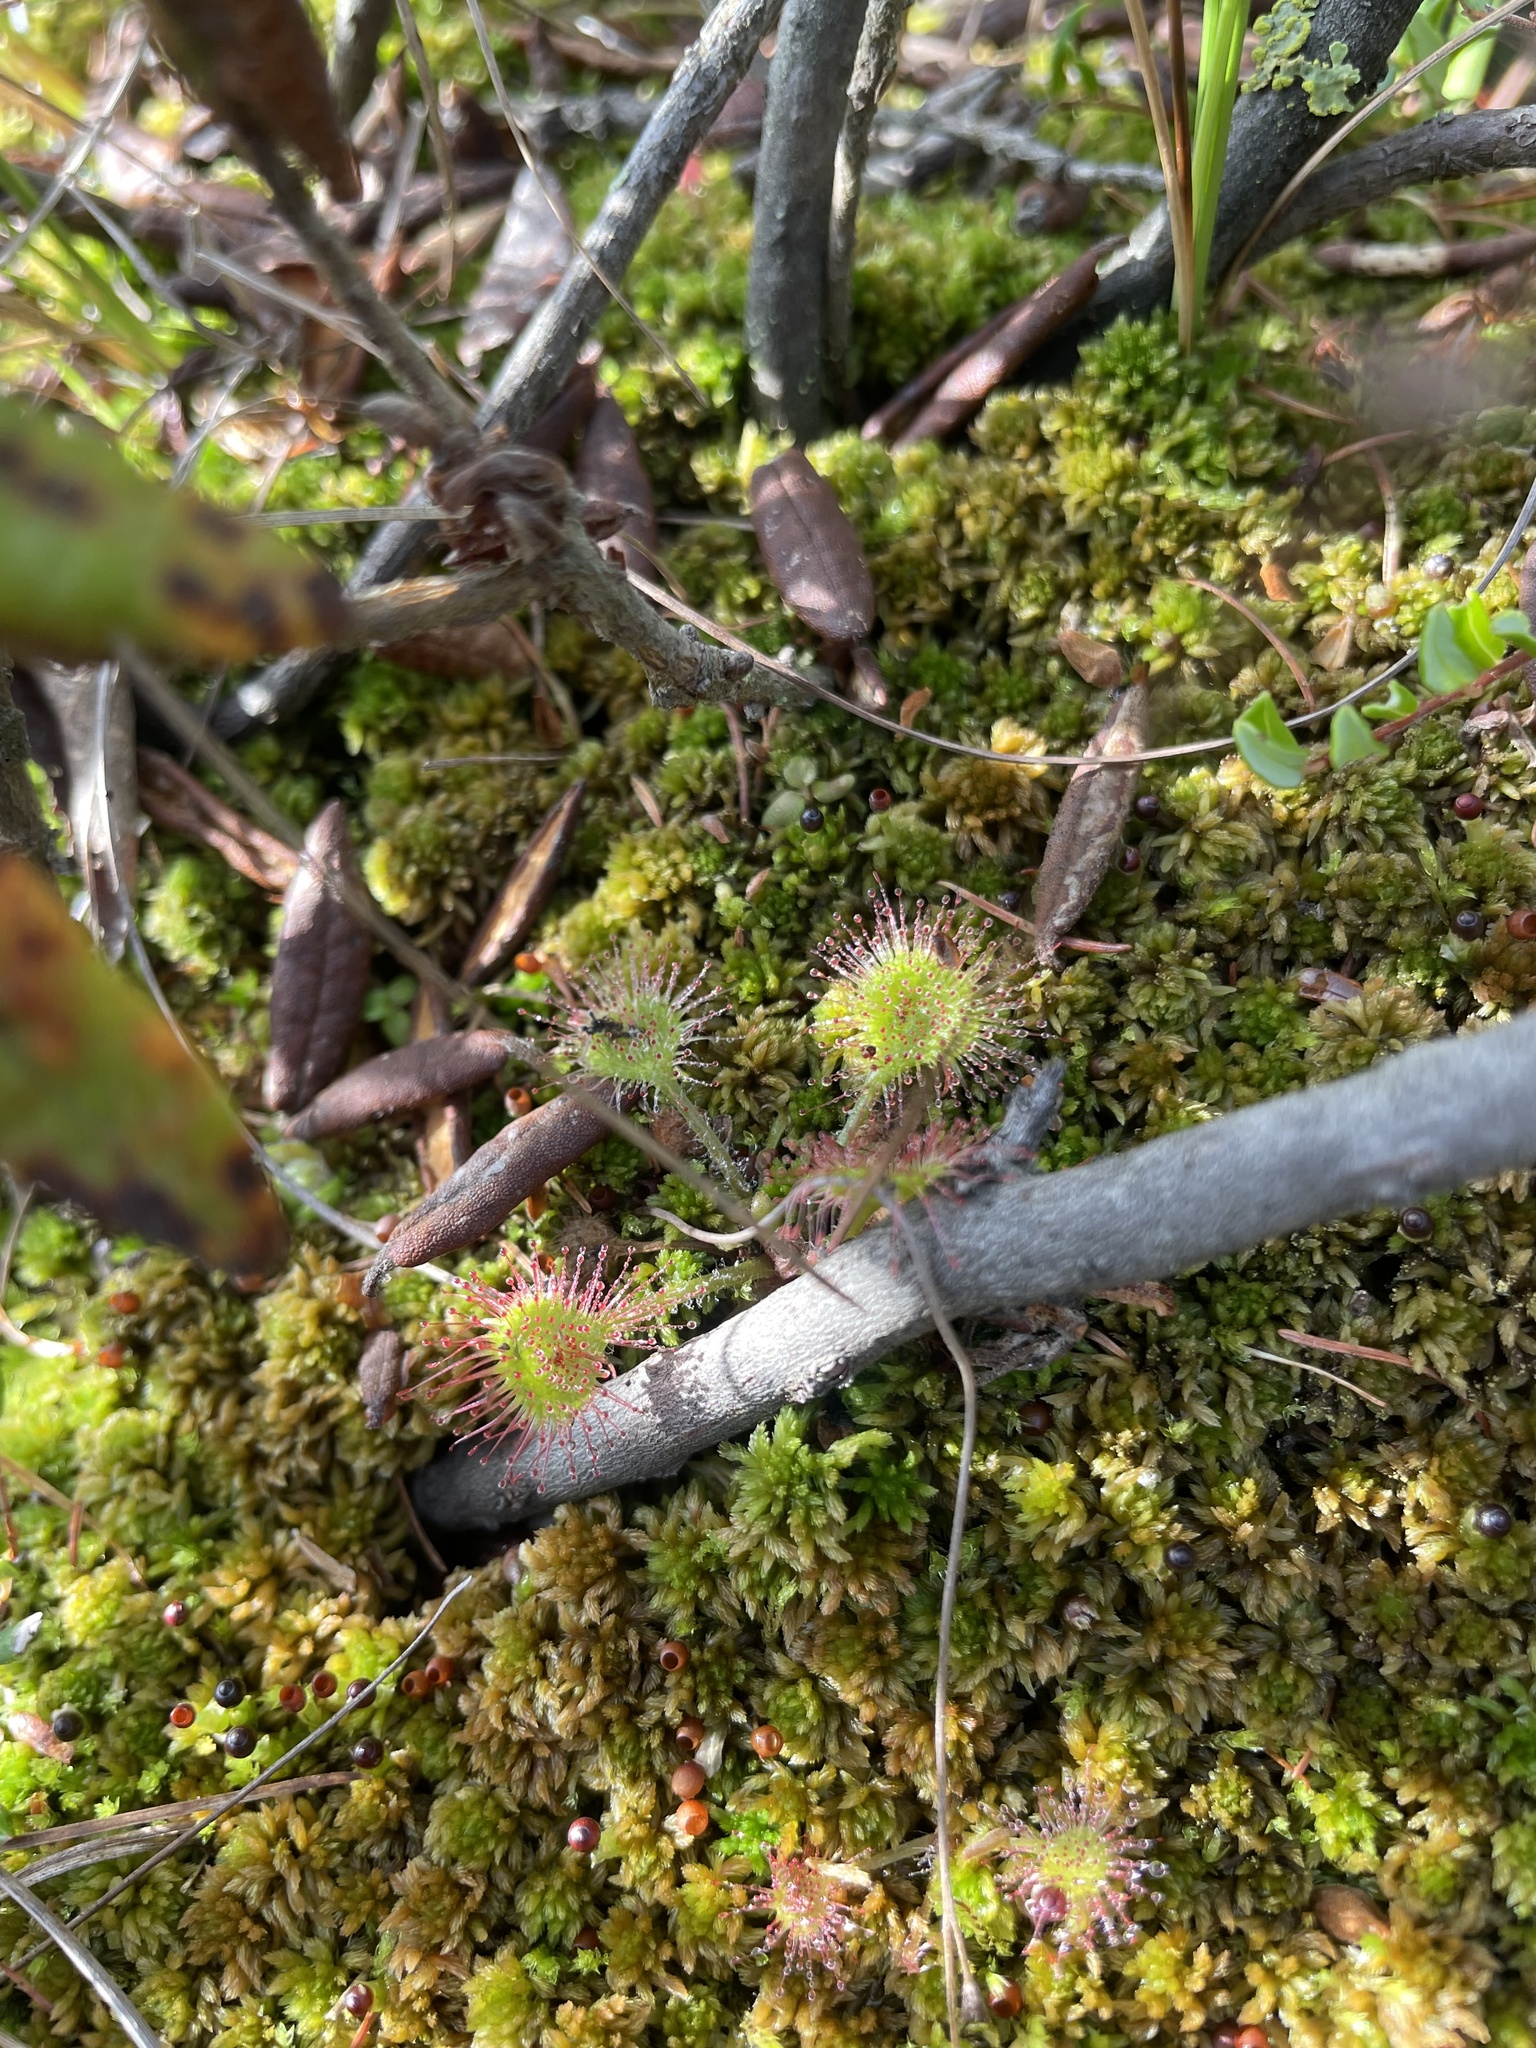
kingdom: Plantae
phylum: Tracheophyta
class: Magnoliopsida
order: Caryophyllales
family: Droseraceae
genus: Drosera
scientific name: Drosera rotundifolia
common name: Round-leaved sundew
